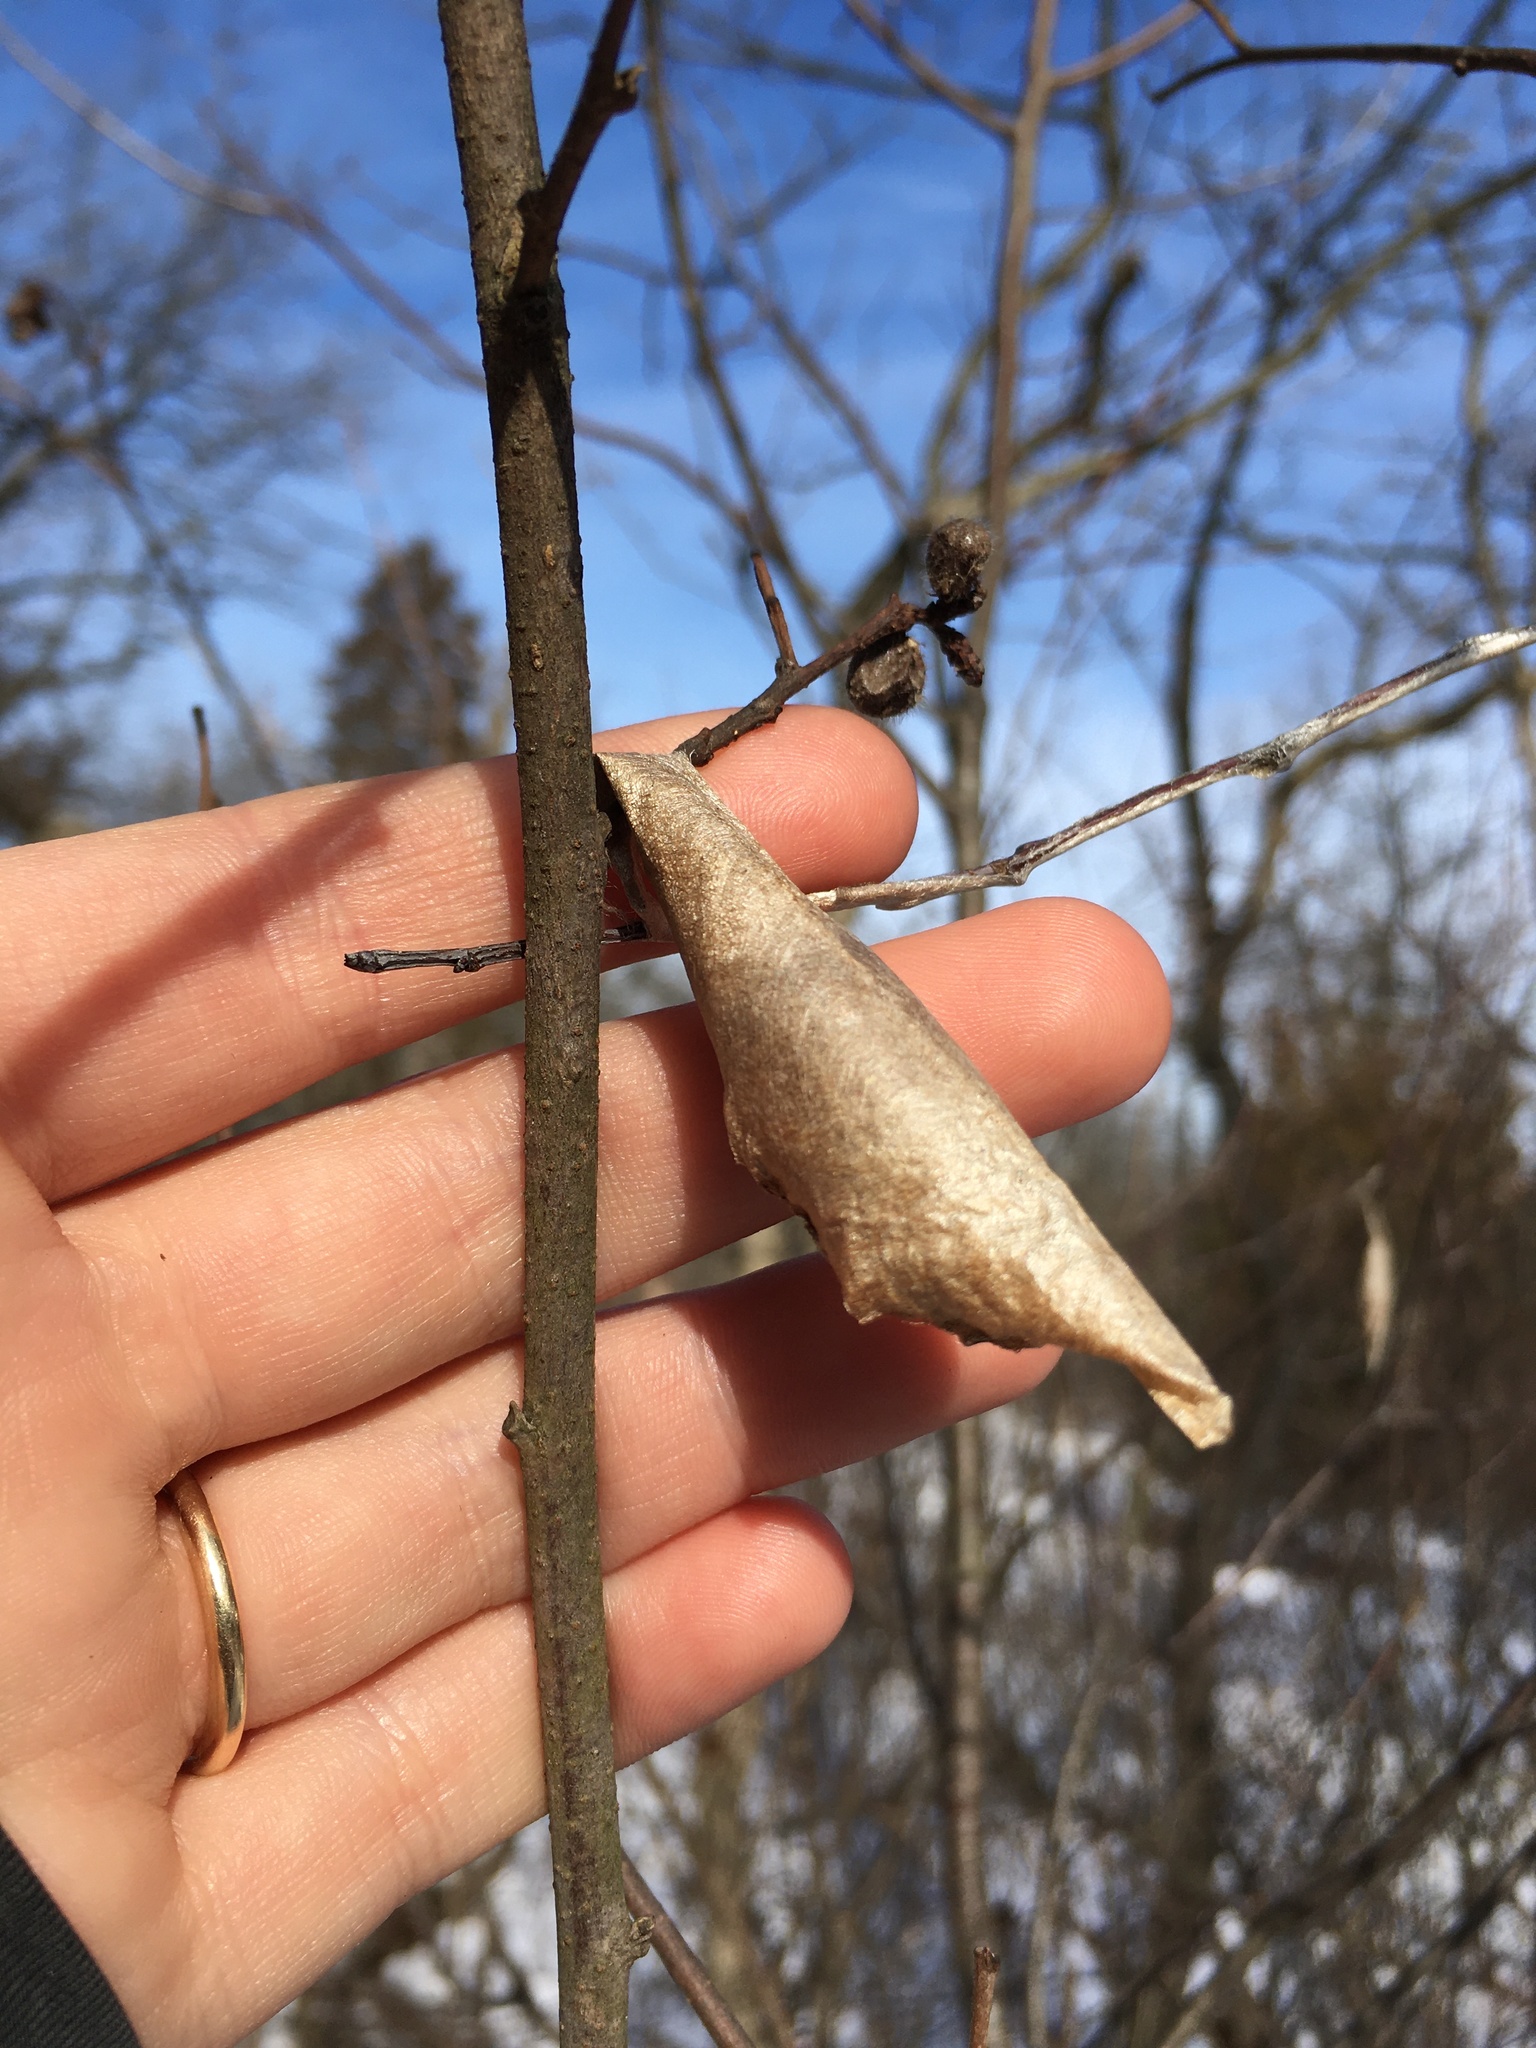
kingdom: Animalia
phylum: Arthropoda
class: Insecta
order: Lepidoptera
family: Saturniidae
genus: Callosamia
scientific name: Callosamia promethea
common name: Promethea silkmoth
